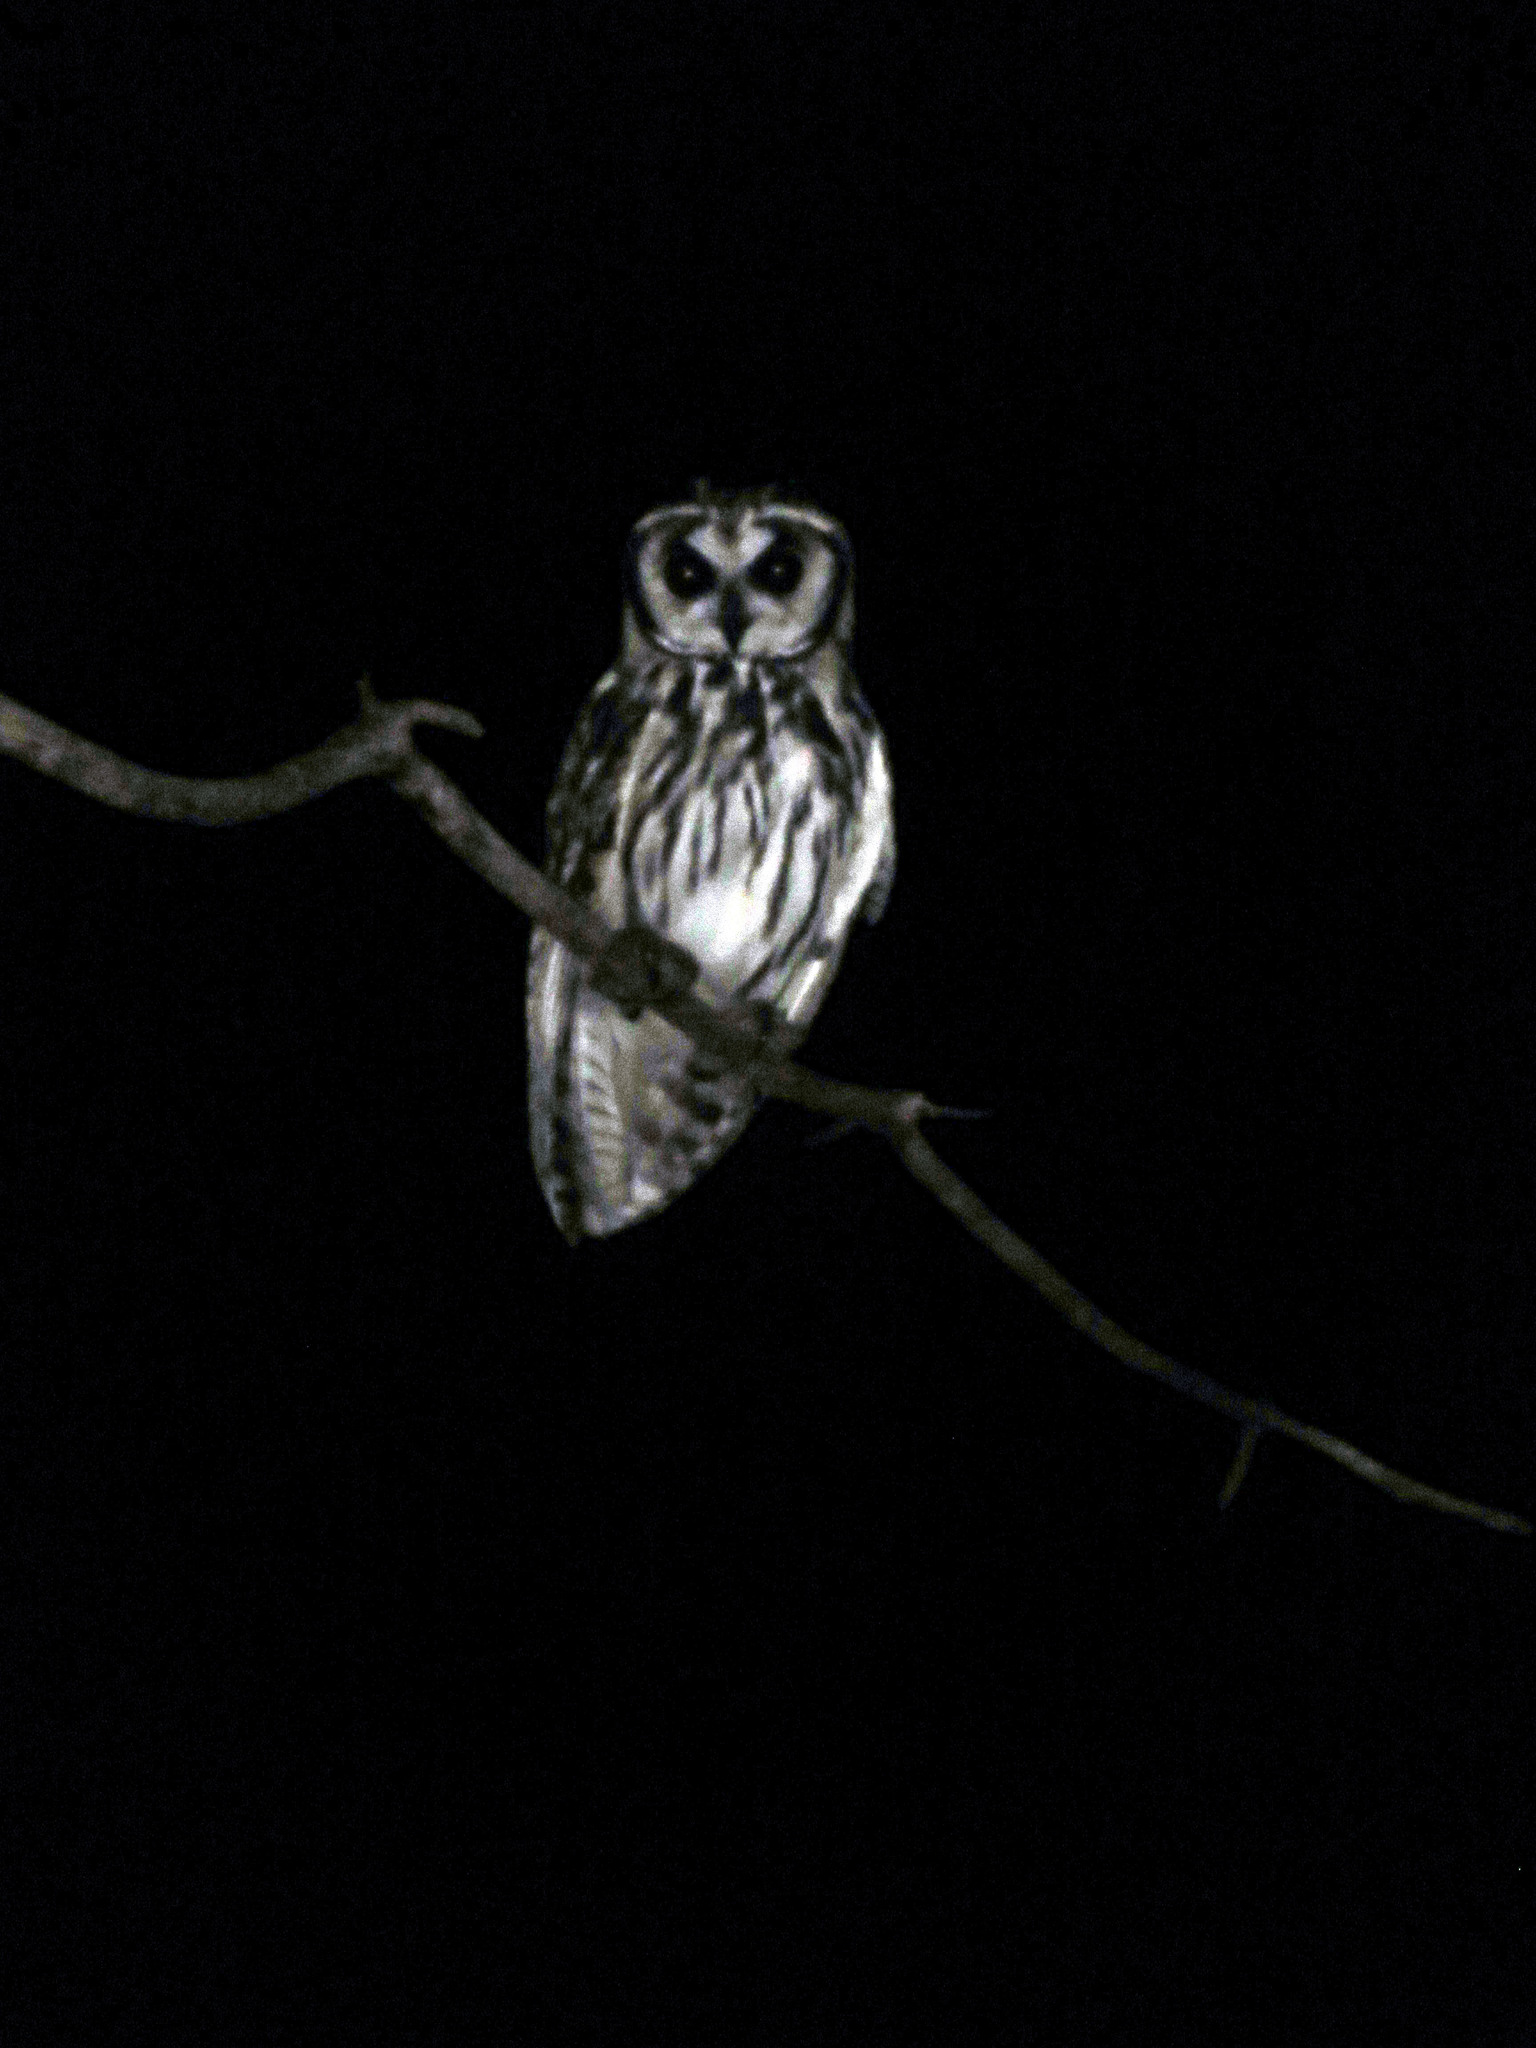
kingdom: Animalia
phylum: Chordata
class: Aves
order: Strigiformes
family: Strigidae
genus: Pseudoscops
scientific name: Pseudoscops clamator
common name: Striped owl
